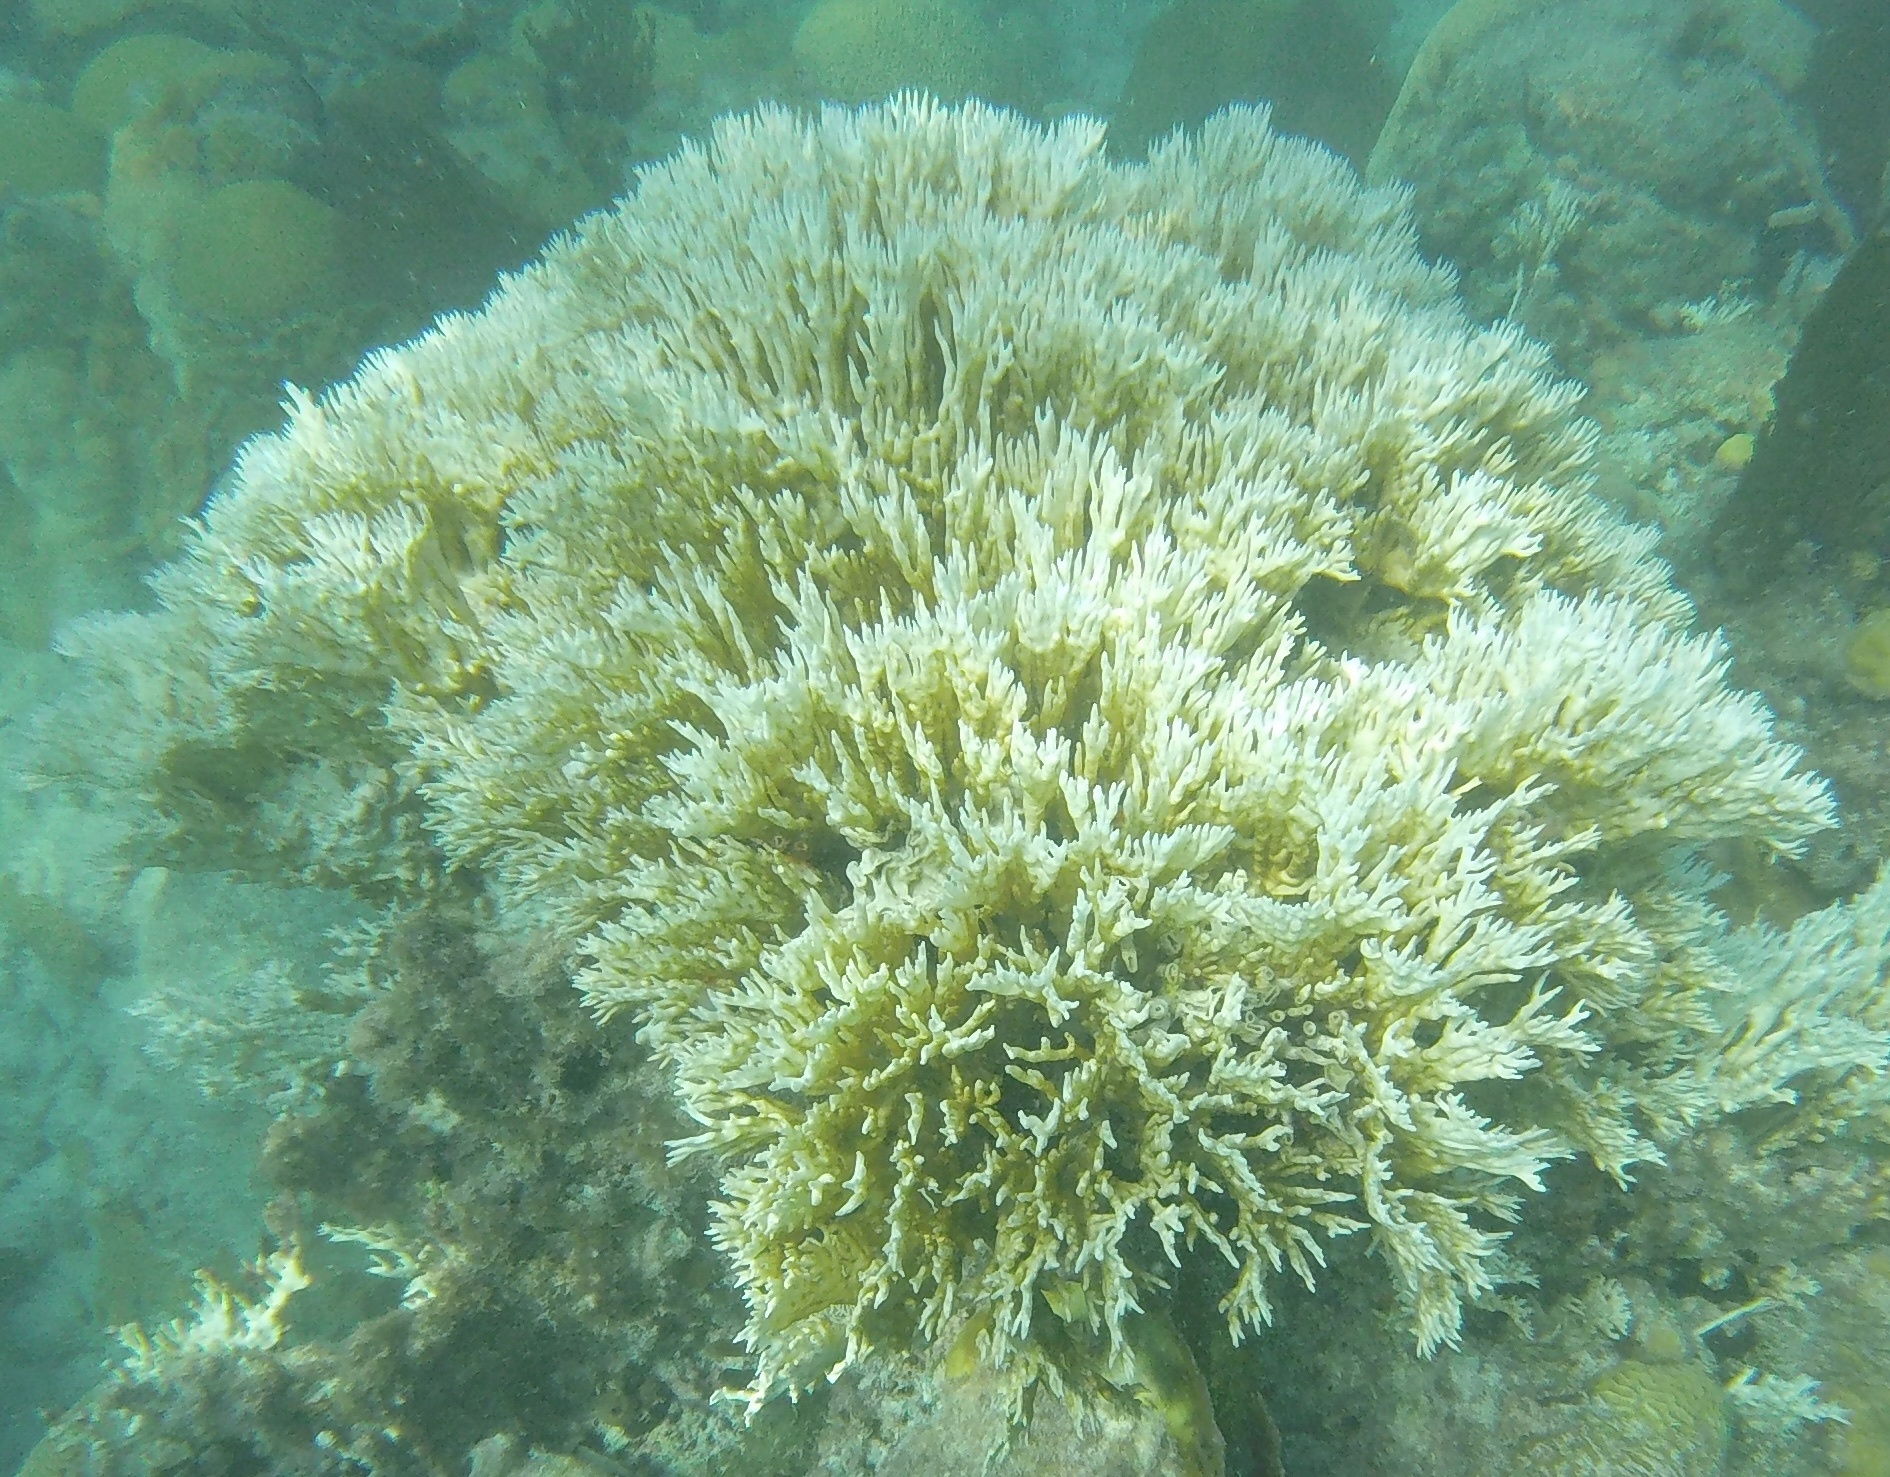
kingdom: Animalia
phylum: Cnidaria
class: Hydrozoa
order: Anthoathecata
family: Milleporidae
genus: Millepora
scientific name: Millepora alcicornis
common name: Branching fire coral
